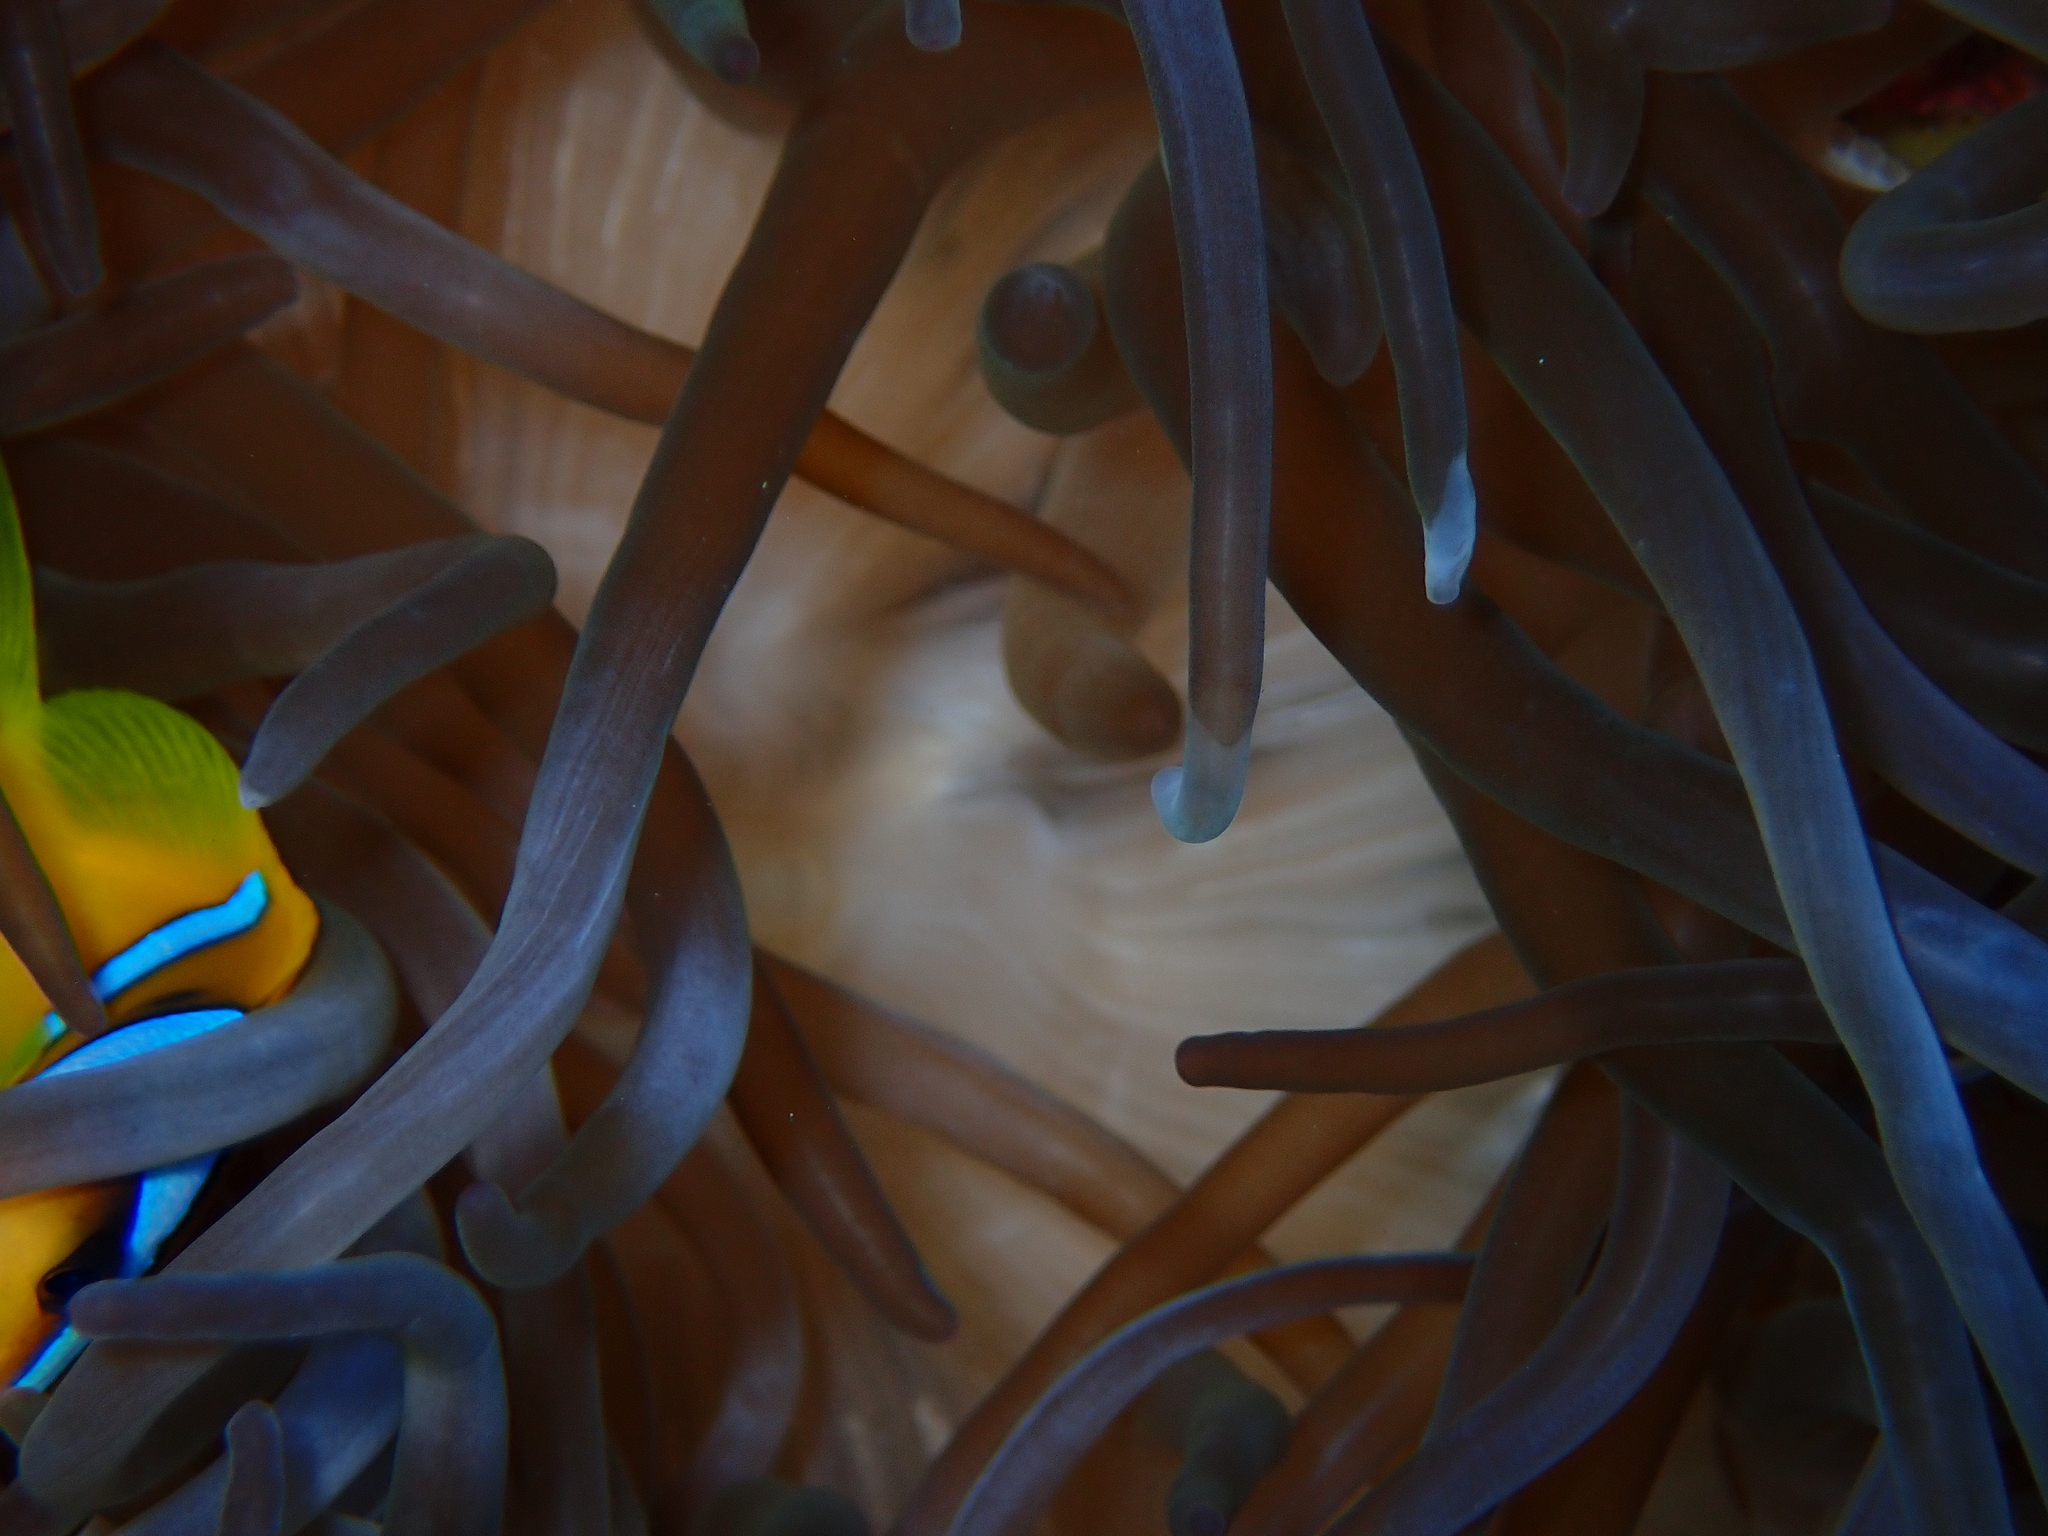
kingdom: Animalia
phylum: Cnidaria
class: Anthozoa
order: Actiniaria
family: Actiniidae
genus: Entacmaea
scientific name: Entacmaea quadricolor
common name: Bulb tentacle sea anemone
